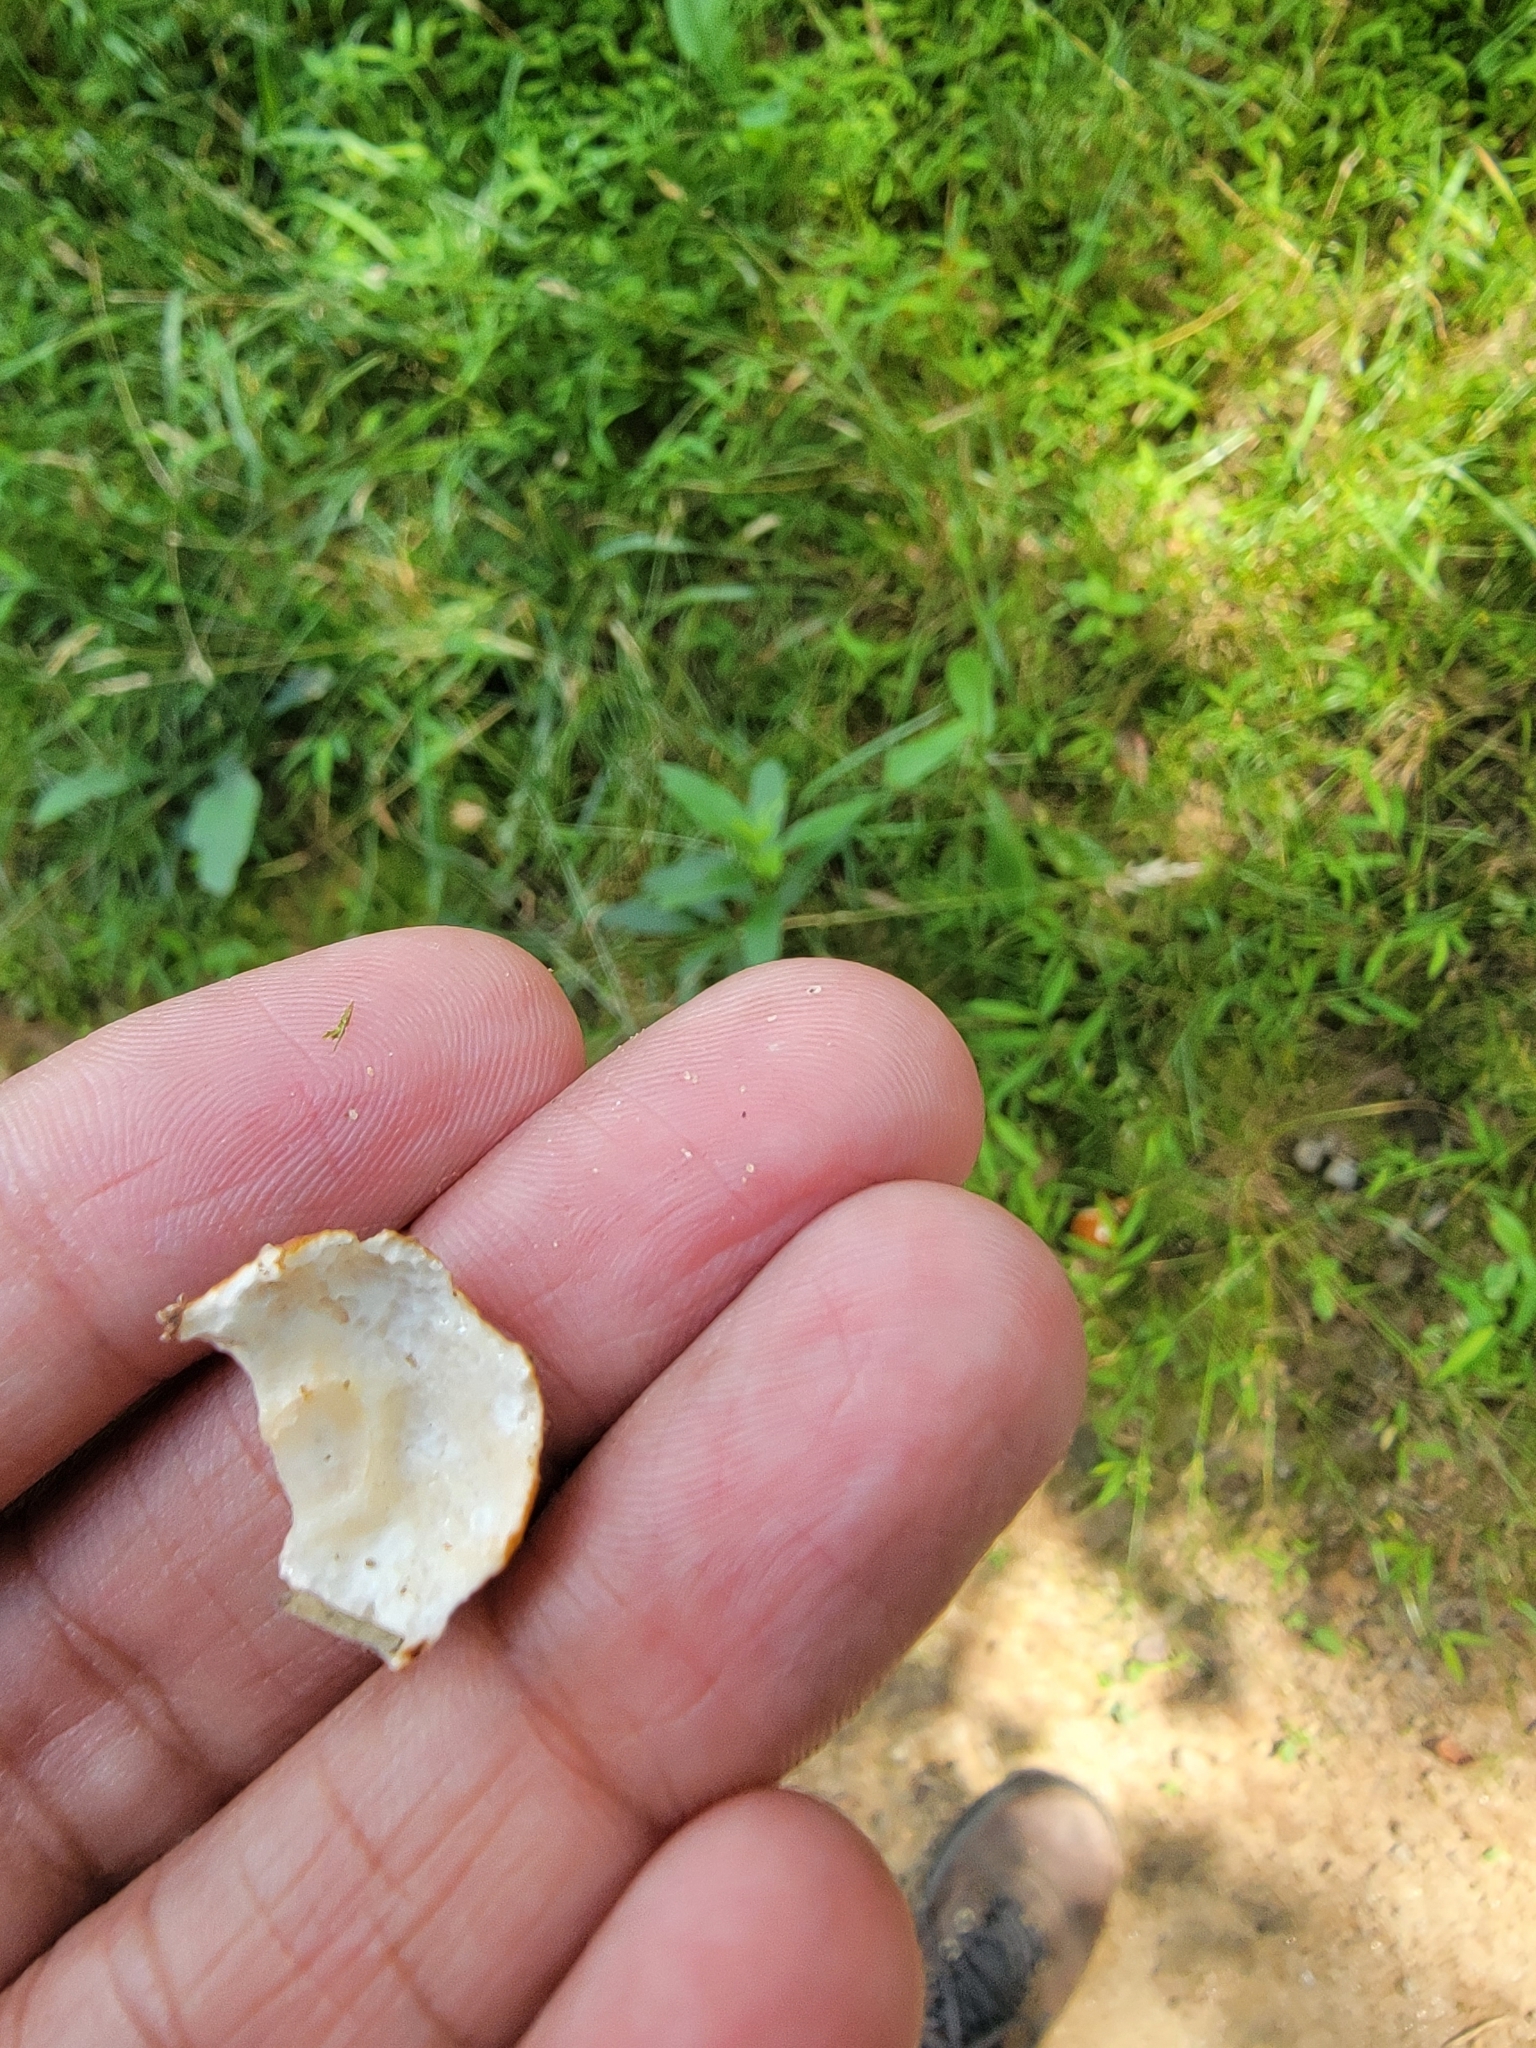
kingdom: Fungi
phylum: Basidiomycota
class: Agaricomycetes
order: Boletales
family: Gyroporaceae
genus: Gyroporus
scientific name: Gyroporus castaneus
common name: Chestnut bolete
